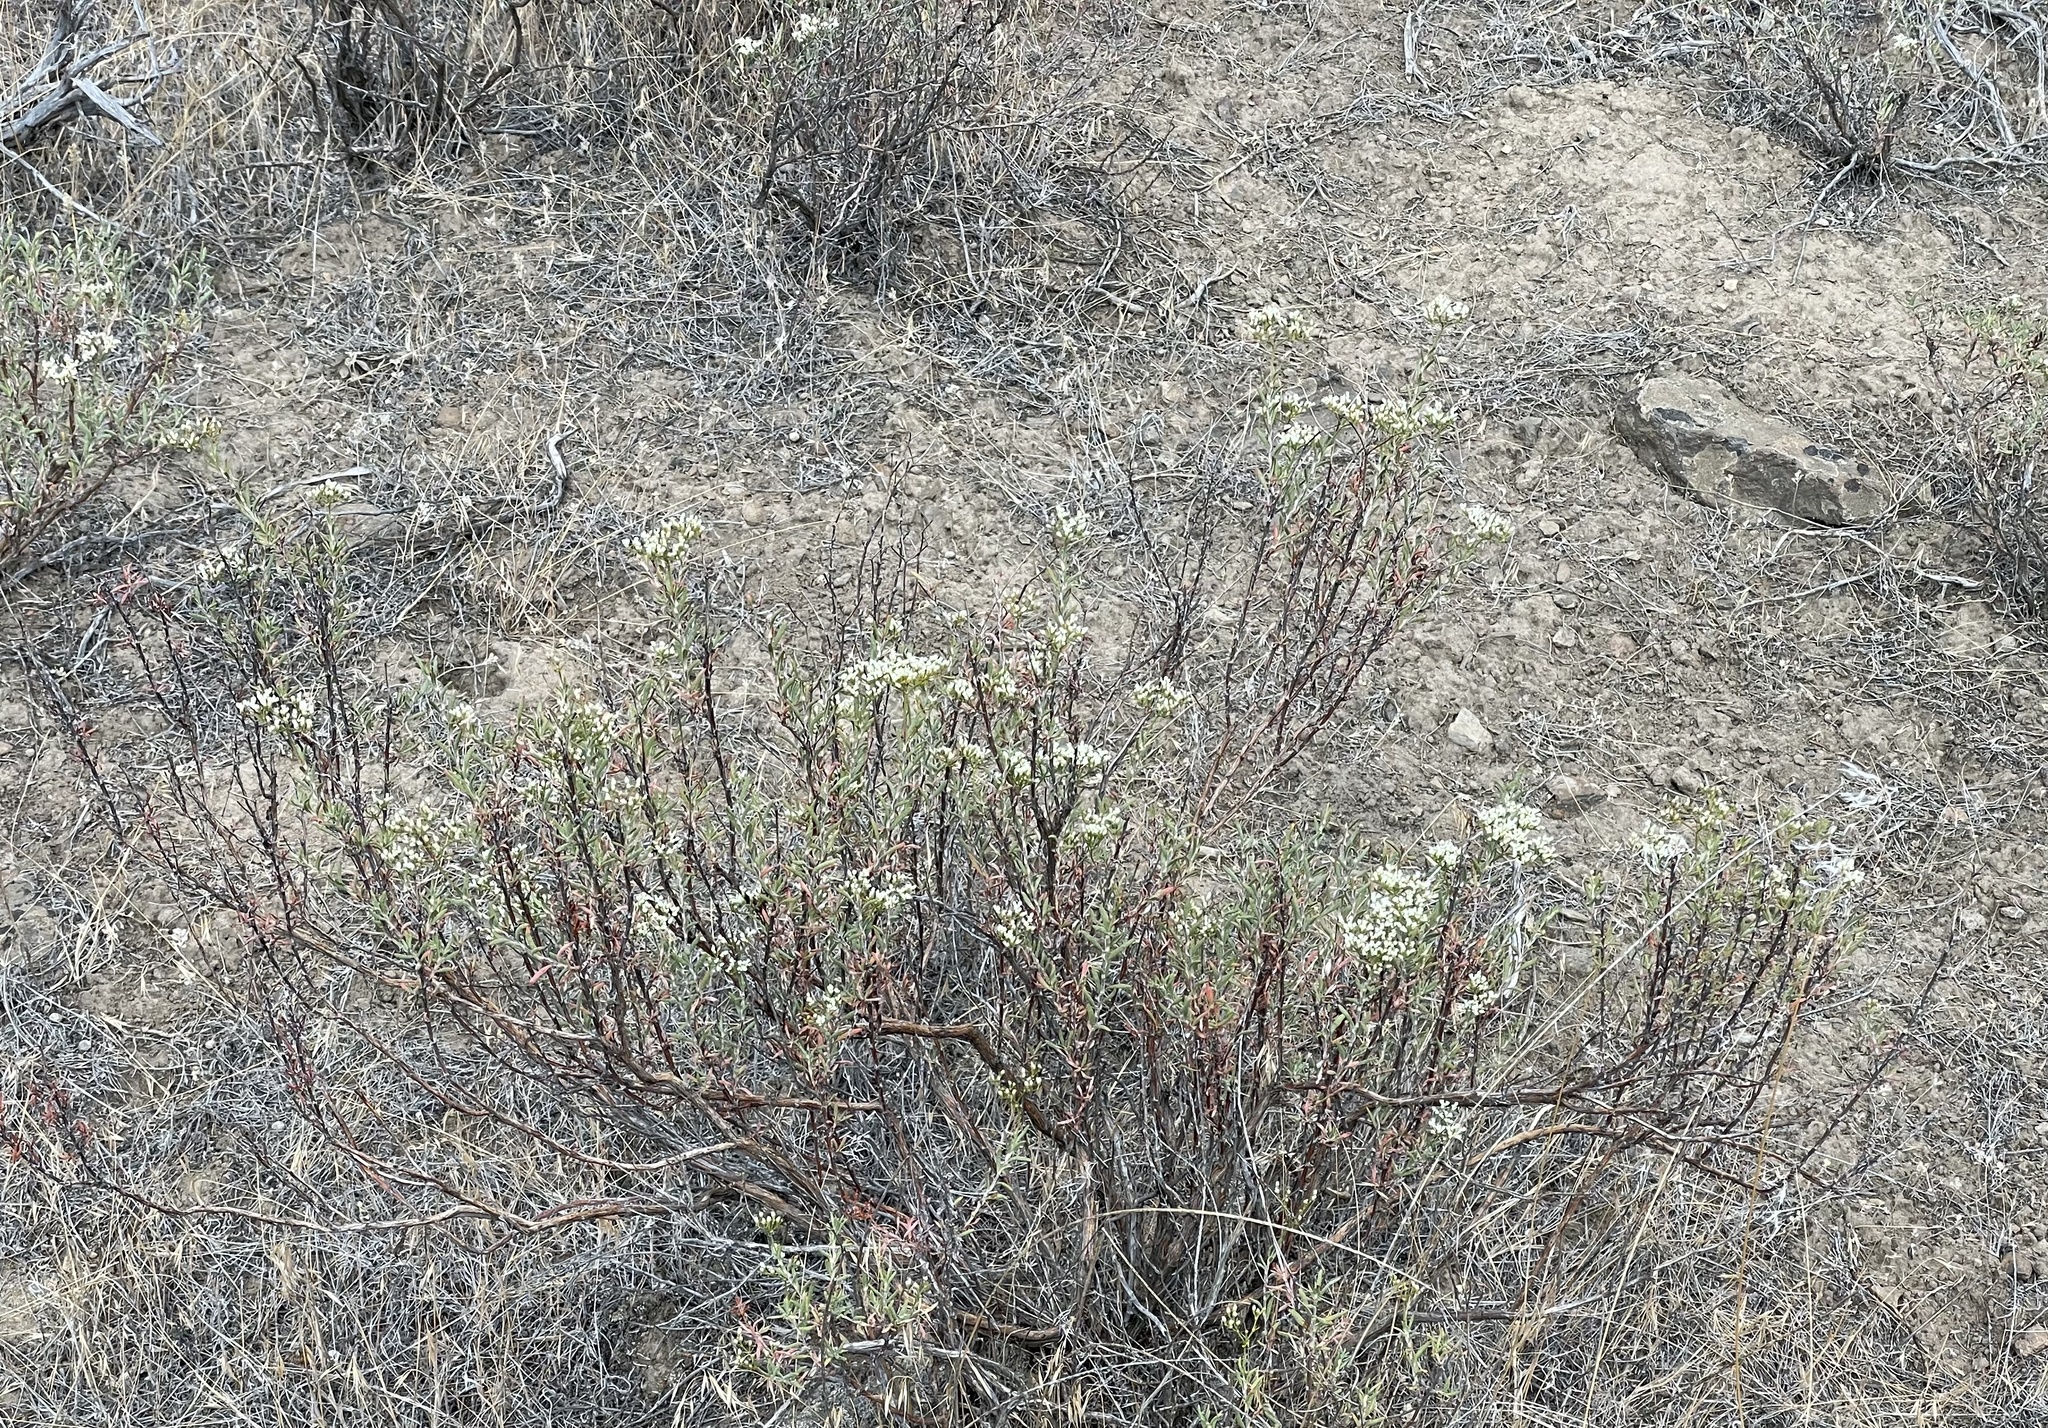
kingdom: Plantae
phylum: Tracheophyta
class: Magnoliopsida
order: Caryophyllales
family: Polygonaceae
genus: Eriogonum
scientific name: Eriogonum microtheca
